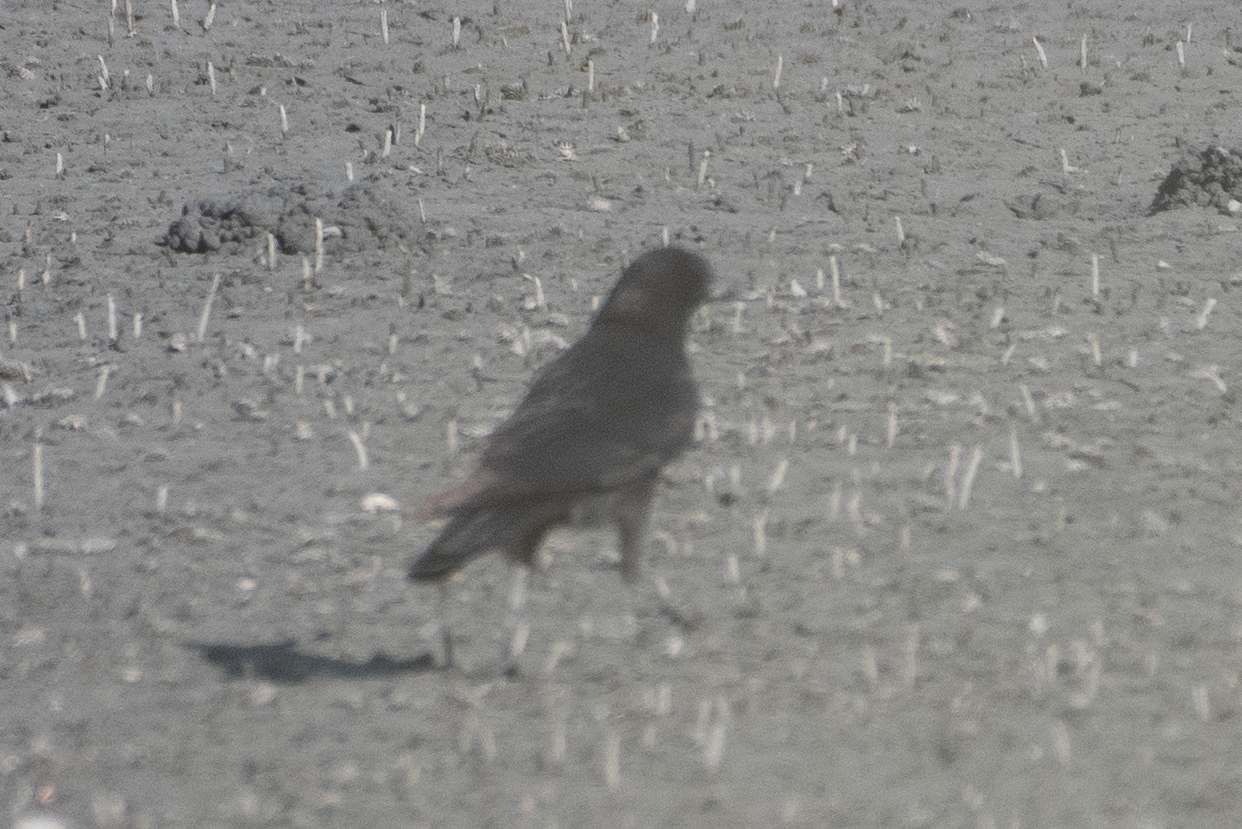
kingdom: Animalia
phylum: Chordata
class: Aves
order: Passeriformes
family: Corvidae
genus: Corvus
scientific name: Corvus brachyrhynchos
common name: American crow
